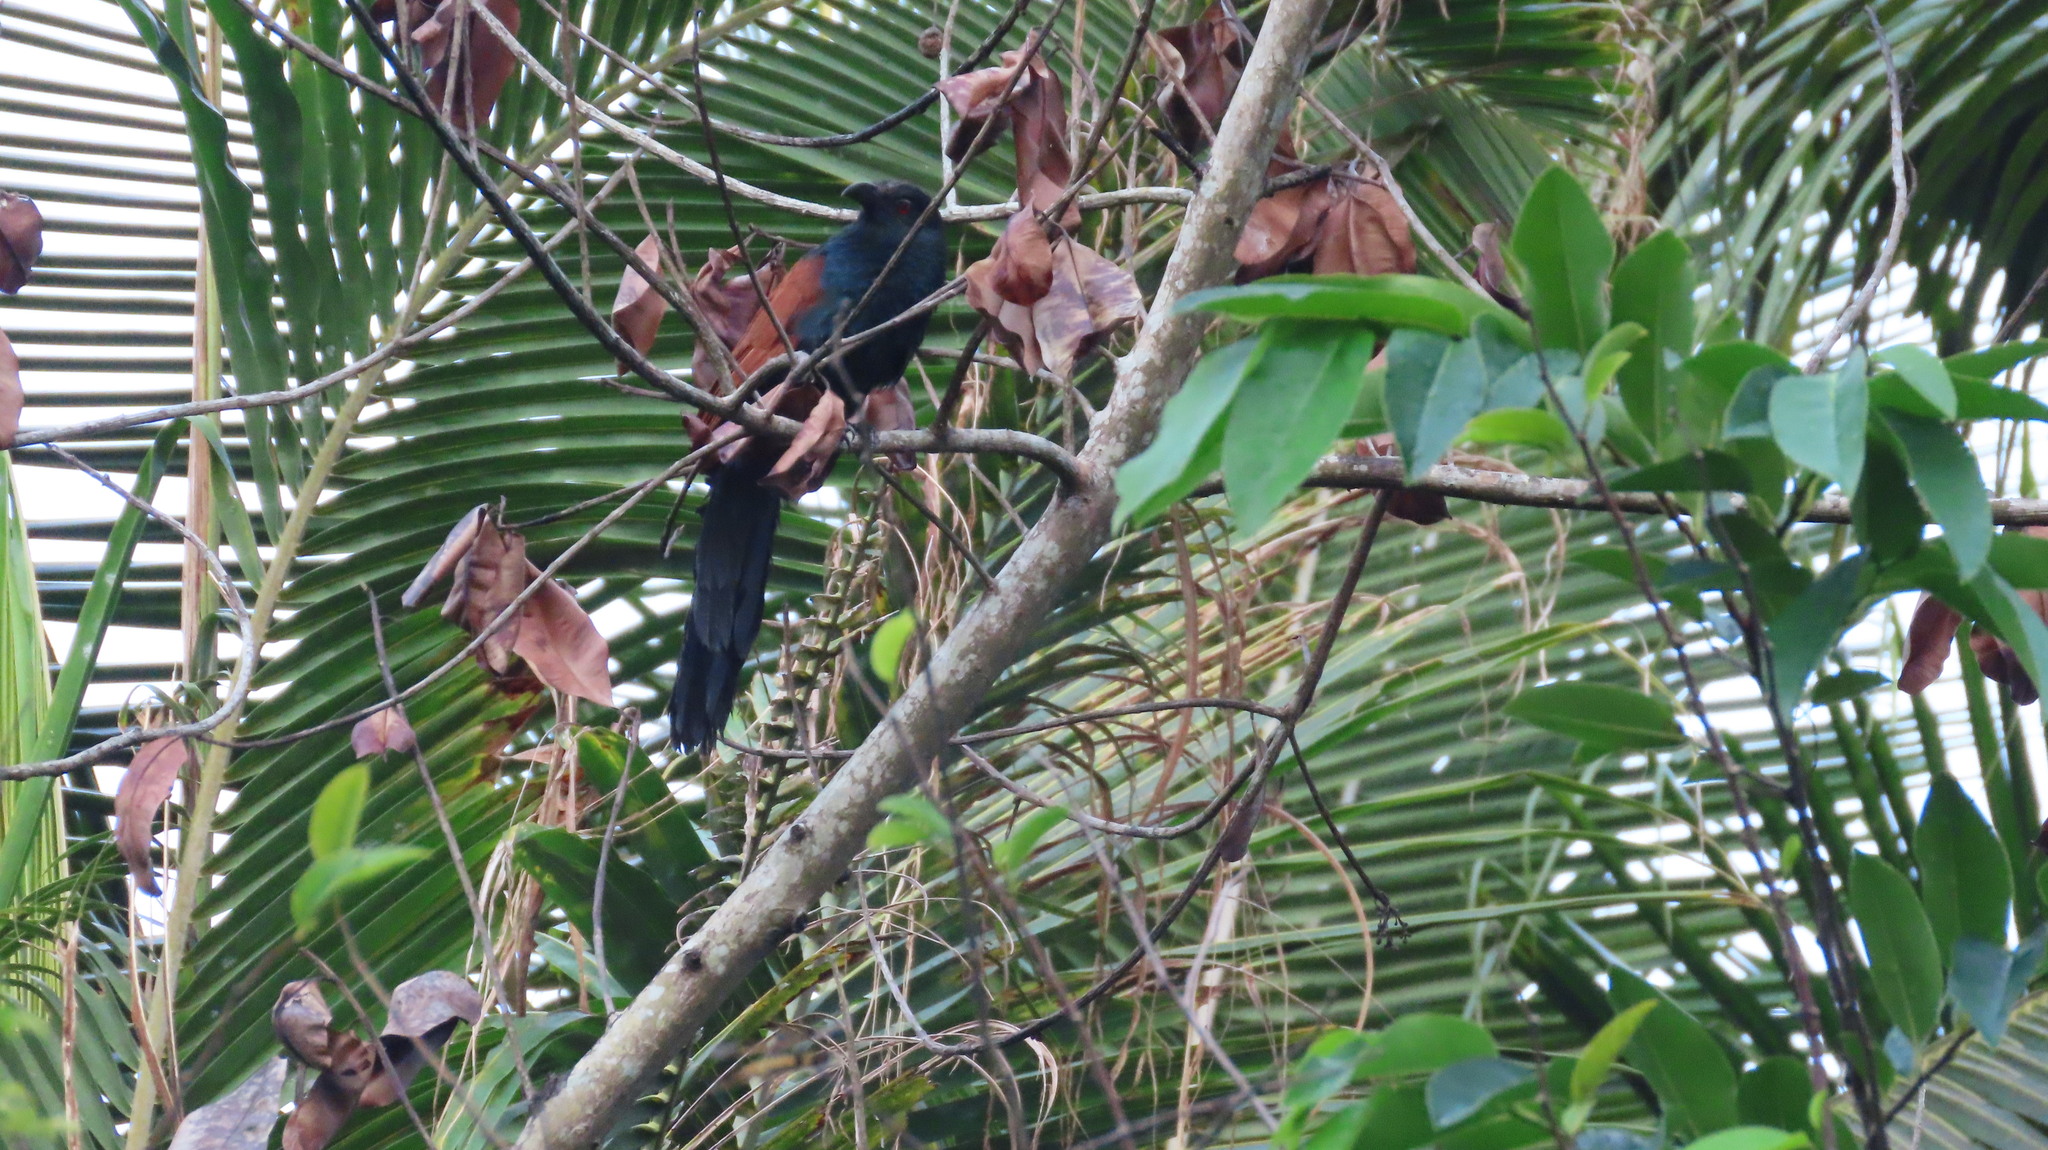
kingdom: Animalia
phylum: Chordata
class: Aves
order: Cuculiformes
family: Cuculidae
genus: Centropus
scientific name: Centropus sinensis
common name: Greater coucal
